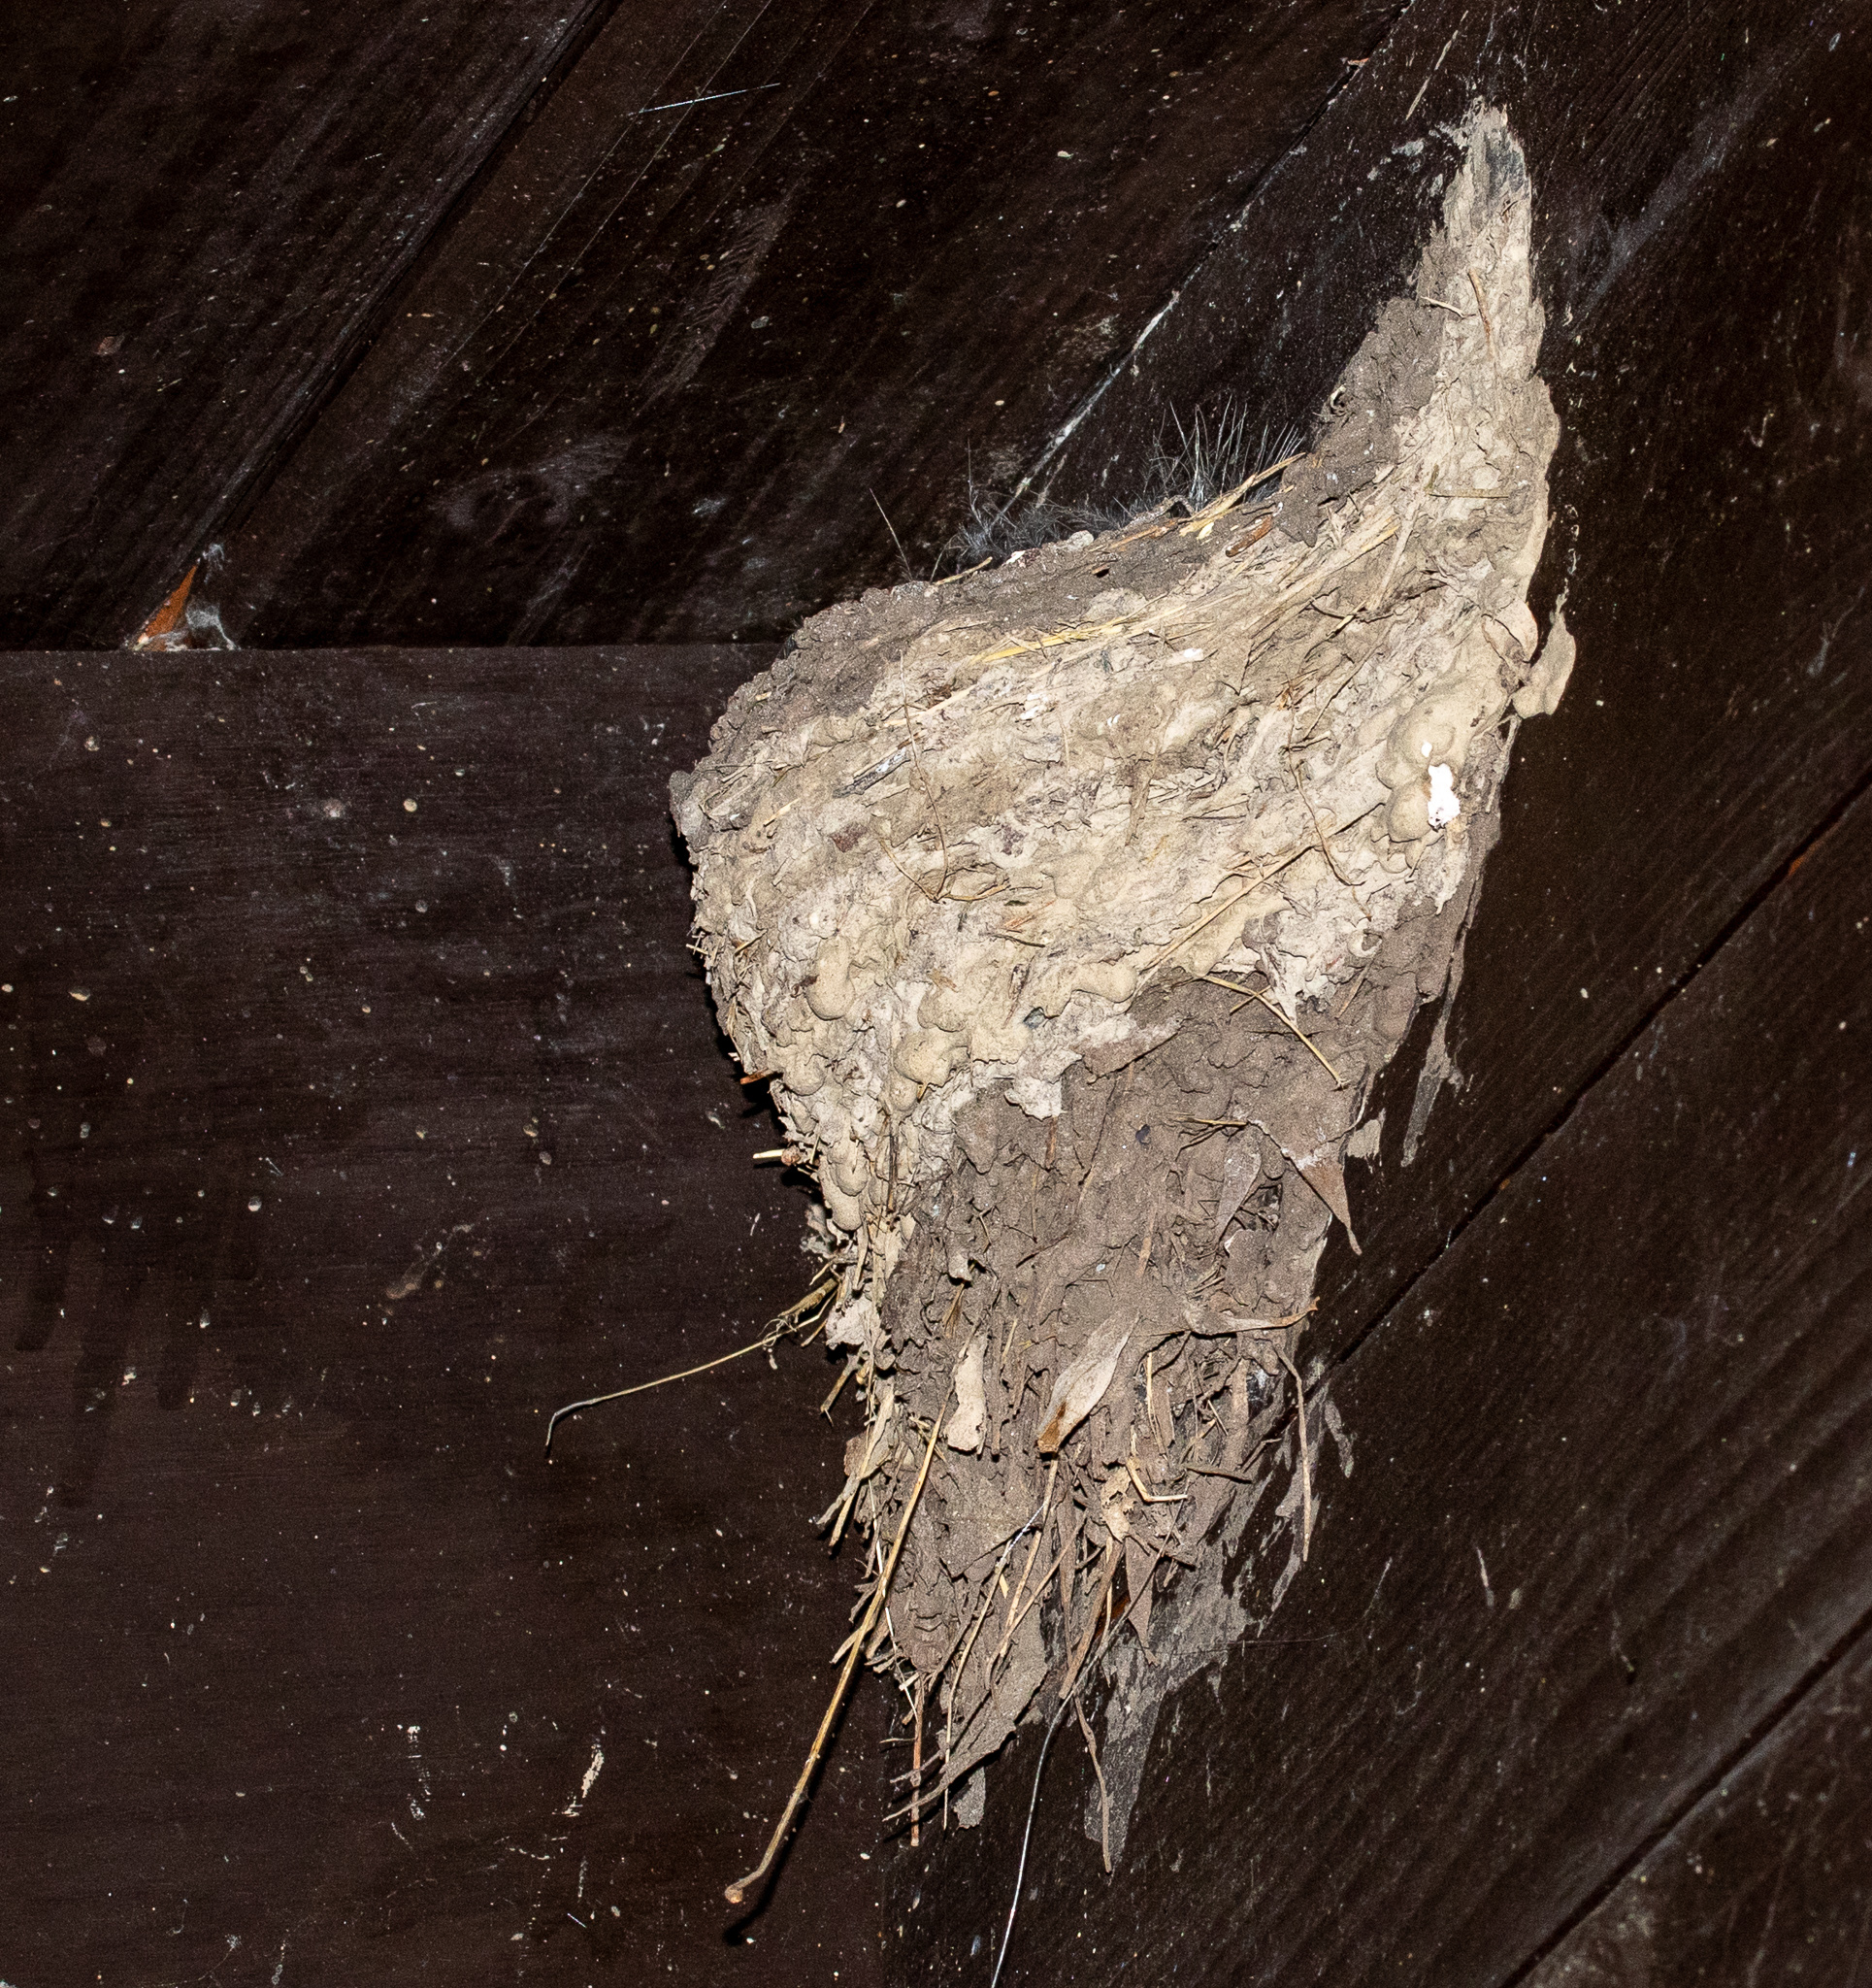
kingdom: Animalia
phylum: Chordata
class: Aves
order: Passeriformes
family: Hirundinidae
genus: Hirundo
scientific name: Hirundo rustica
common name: Barn swallow
